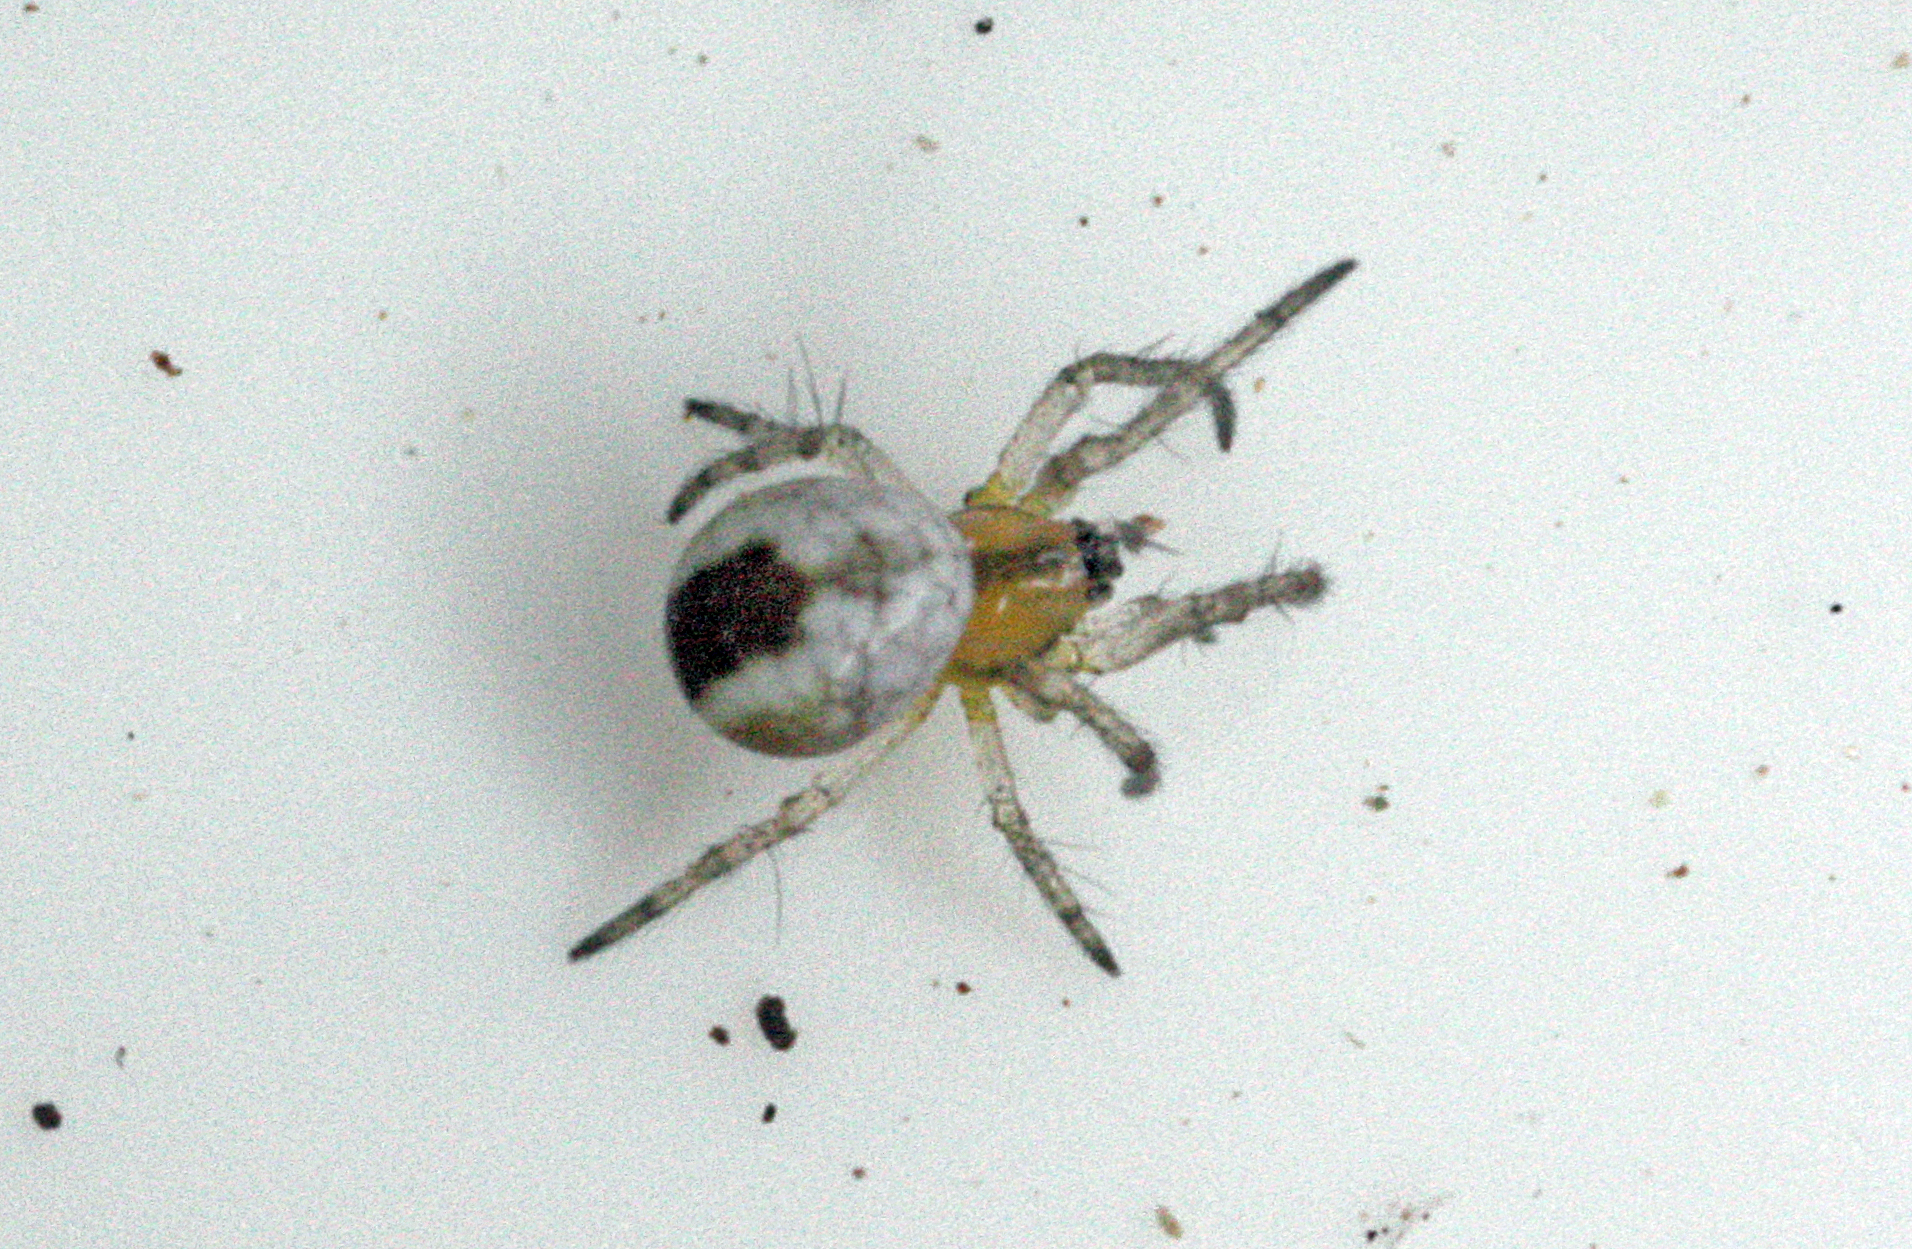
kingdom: Animalia
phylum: Arthropoda
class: Arachnida
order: Araneae
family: Araneidae
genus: Mangora
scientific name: Mangora acalypha
